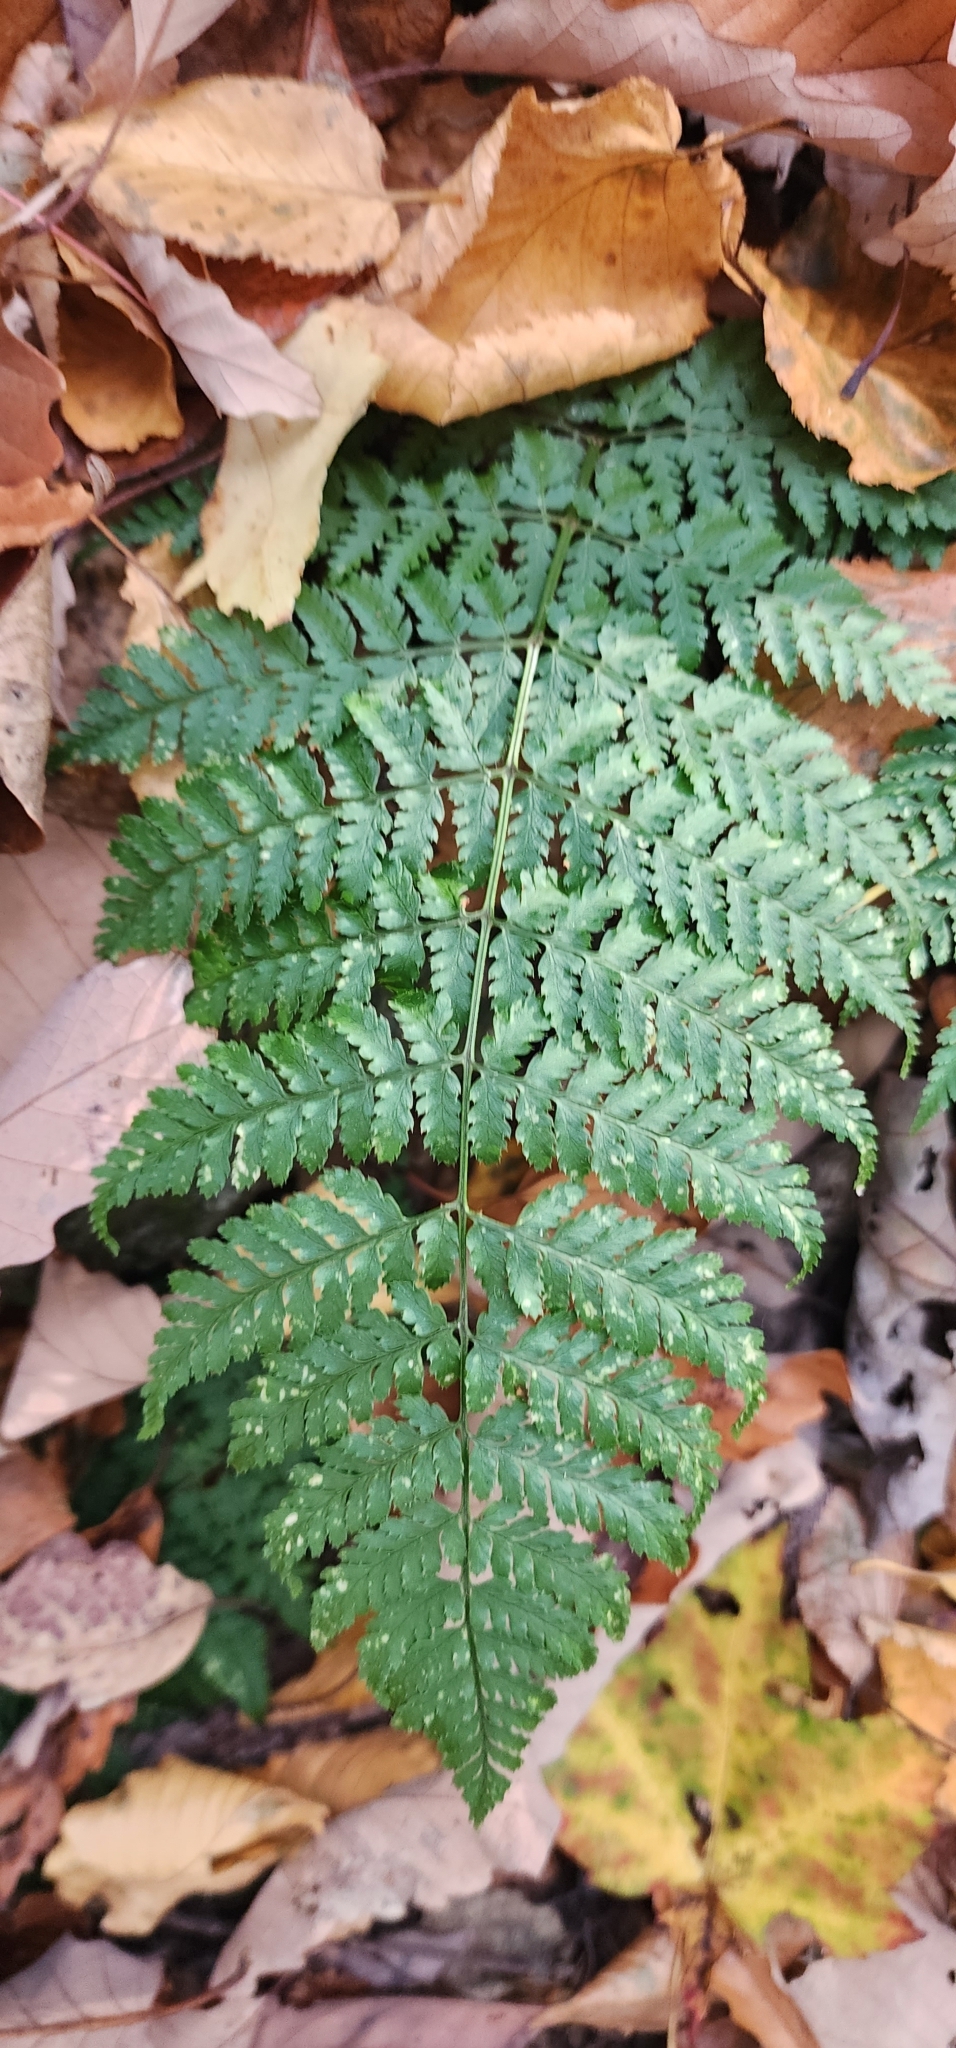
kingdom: Plantae
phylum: Tracheophyta
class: Polypodiopsida
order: Polypodiales
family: Dryopteridaceae
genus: Dryopteris
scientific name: Dryopteris intermedia
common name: Evergreen wood fern
